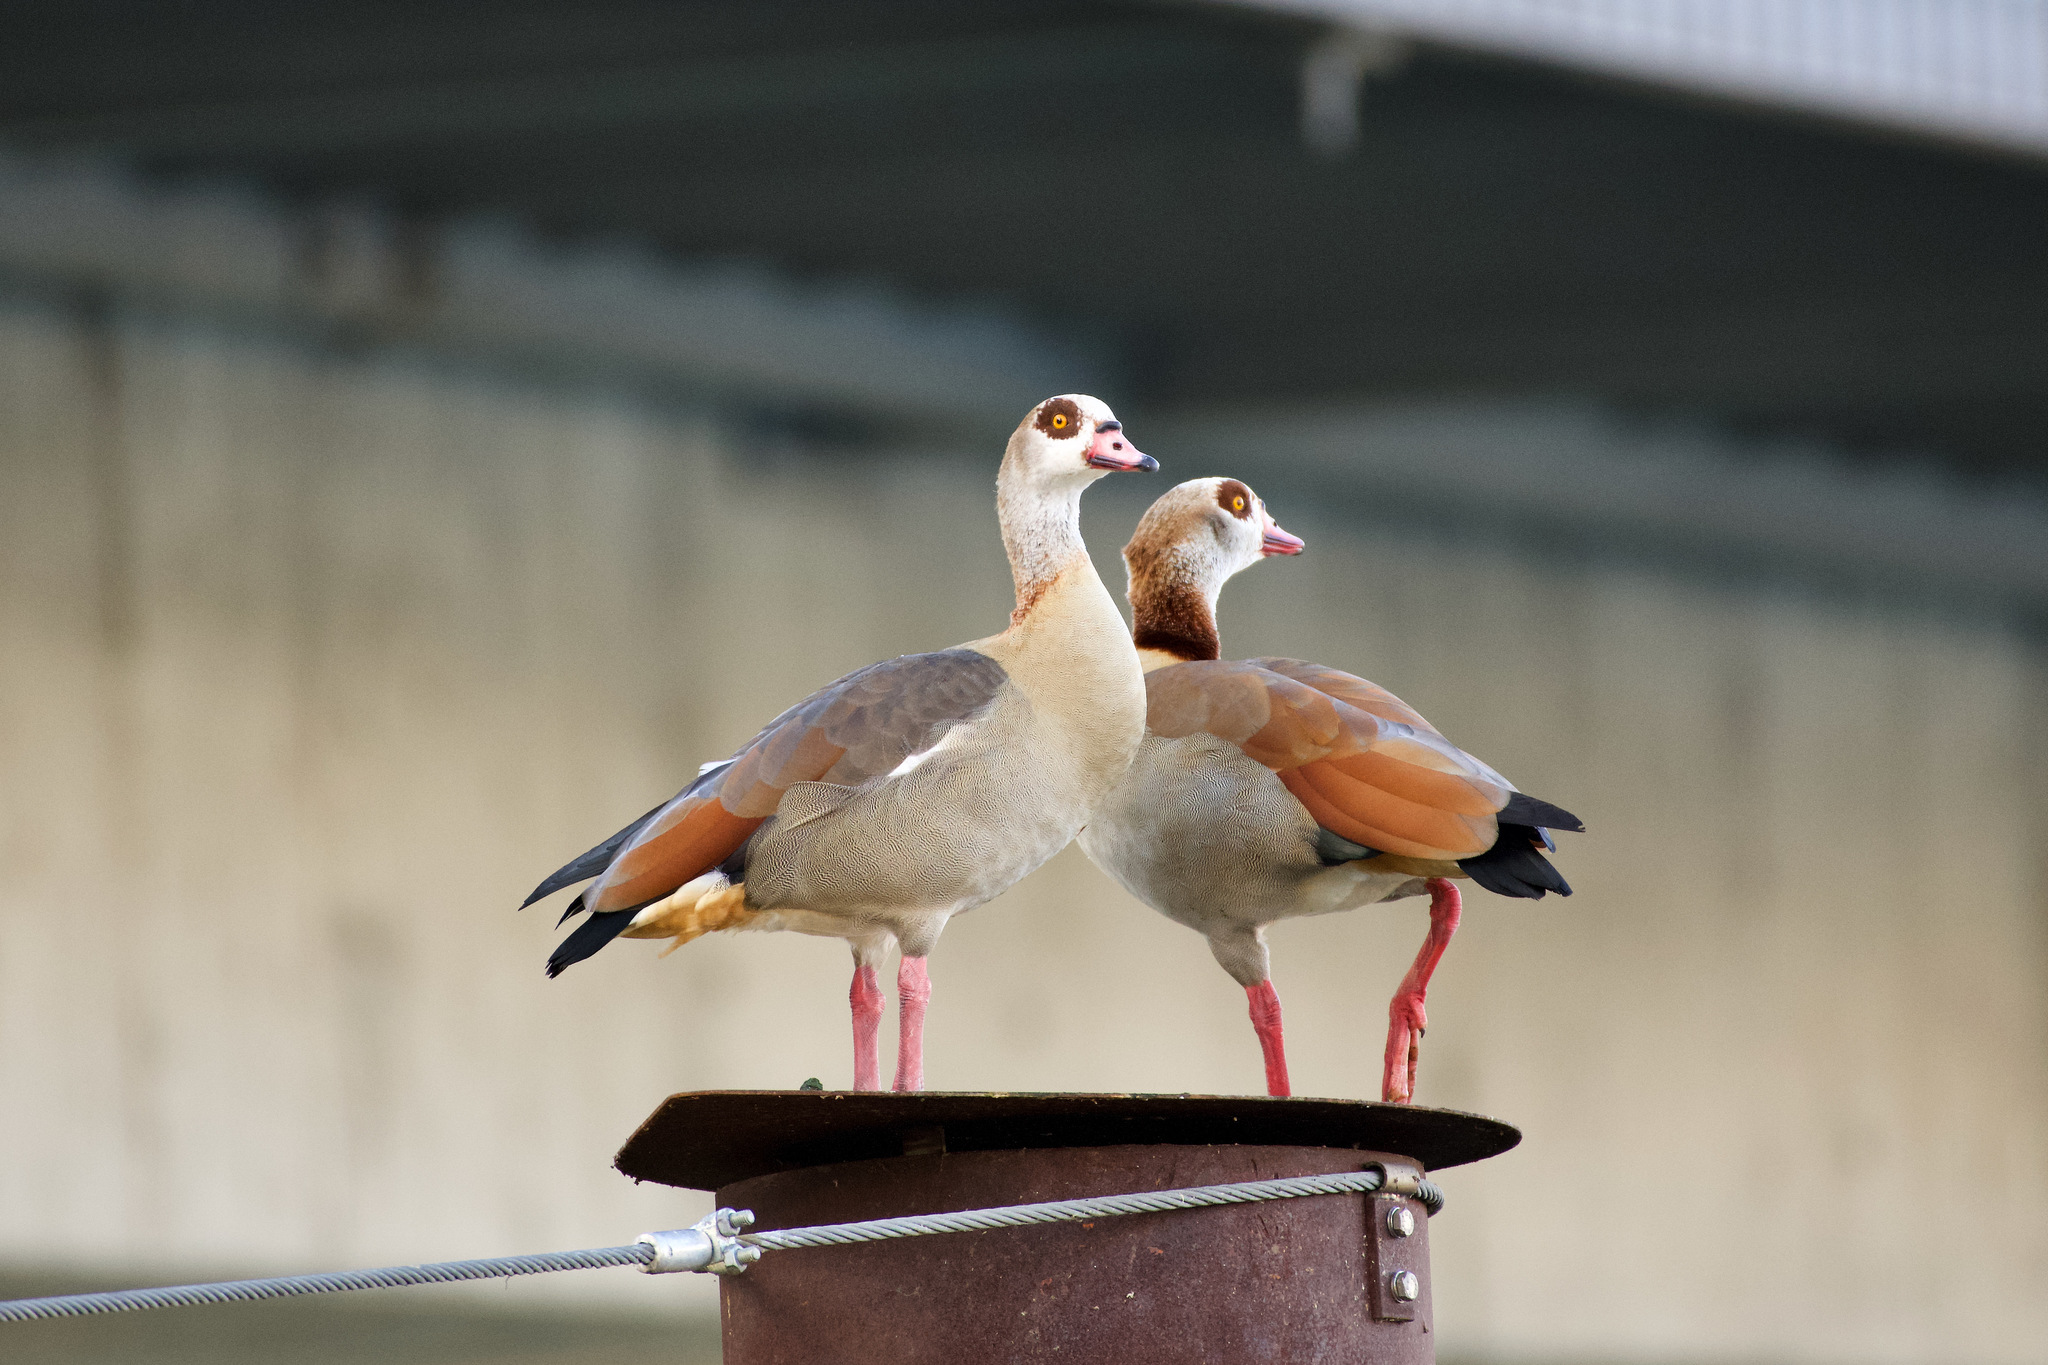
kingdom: Animalia
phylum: Chordata
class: Aves
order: Anseriformes
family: Anatidae
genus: Alopochen
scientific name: Alopochen aegyptiaca
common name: Egyptian goose
